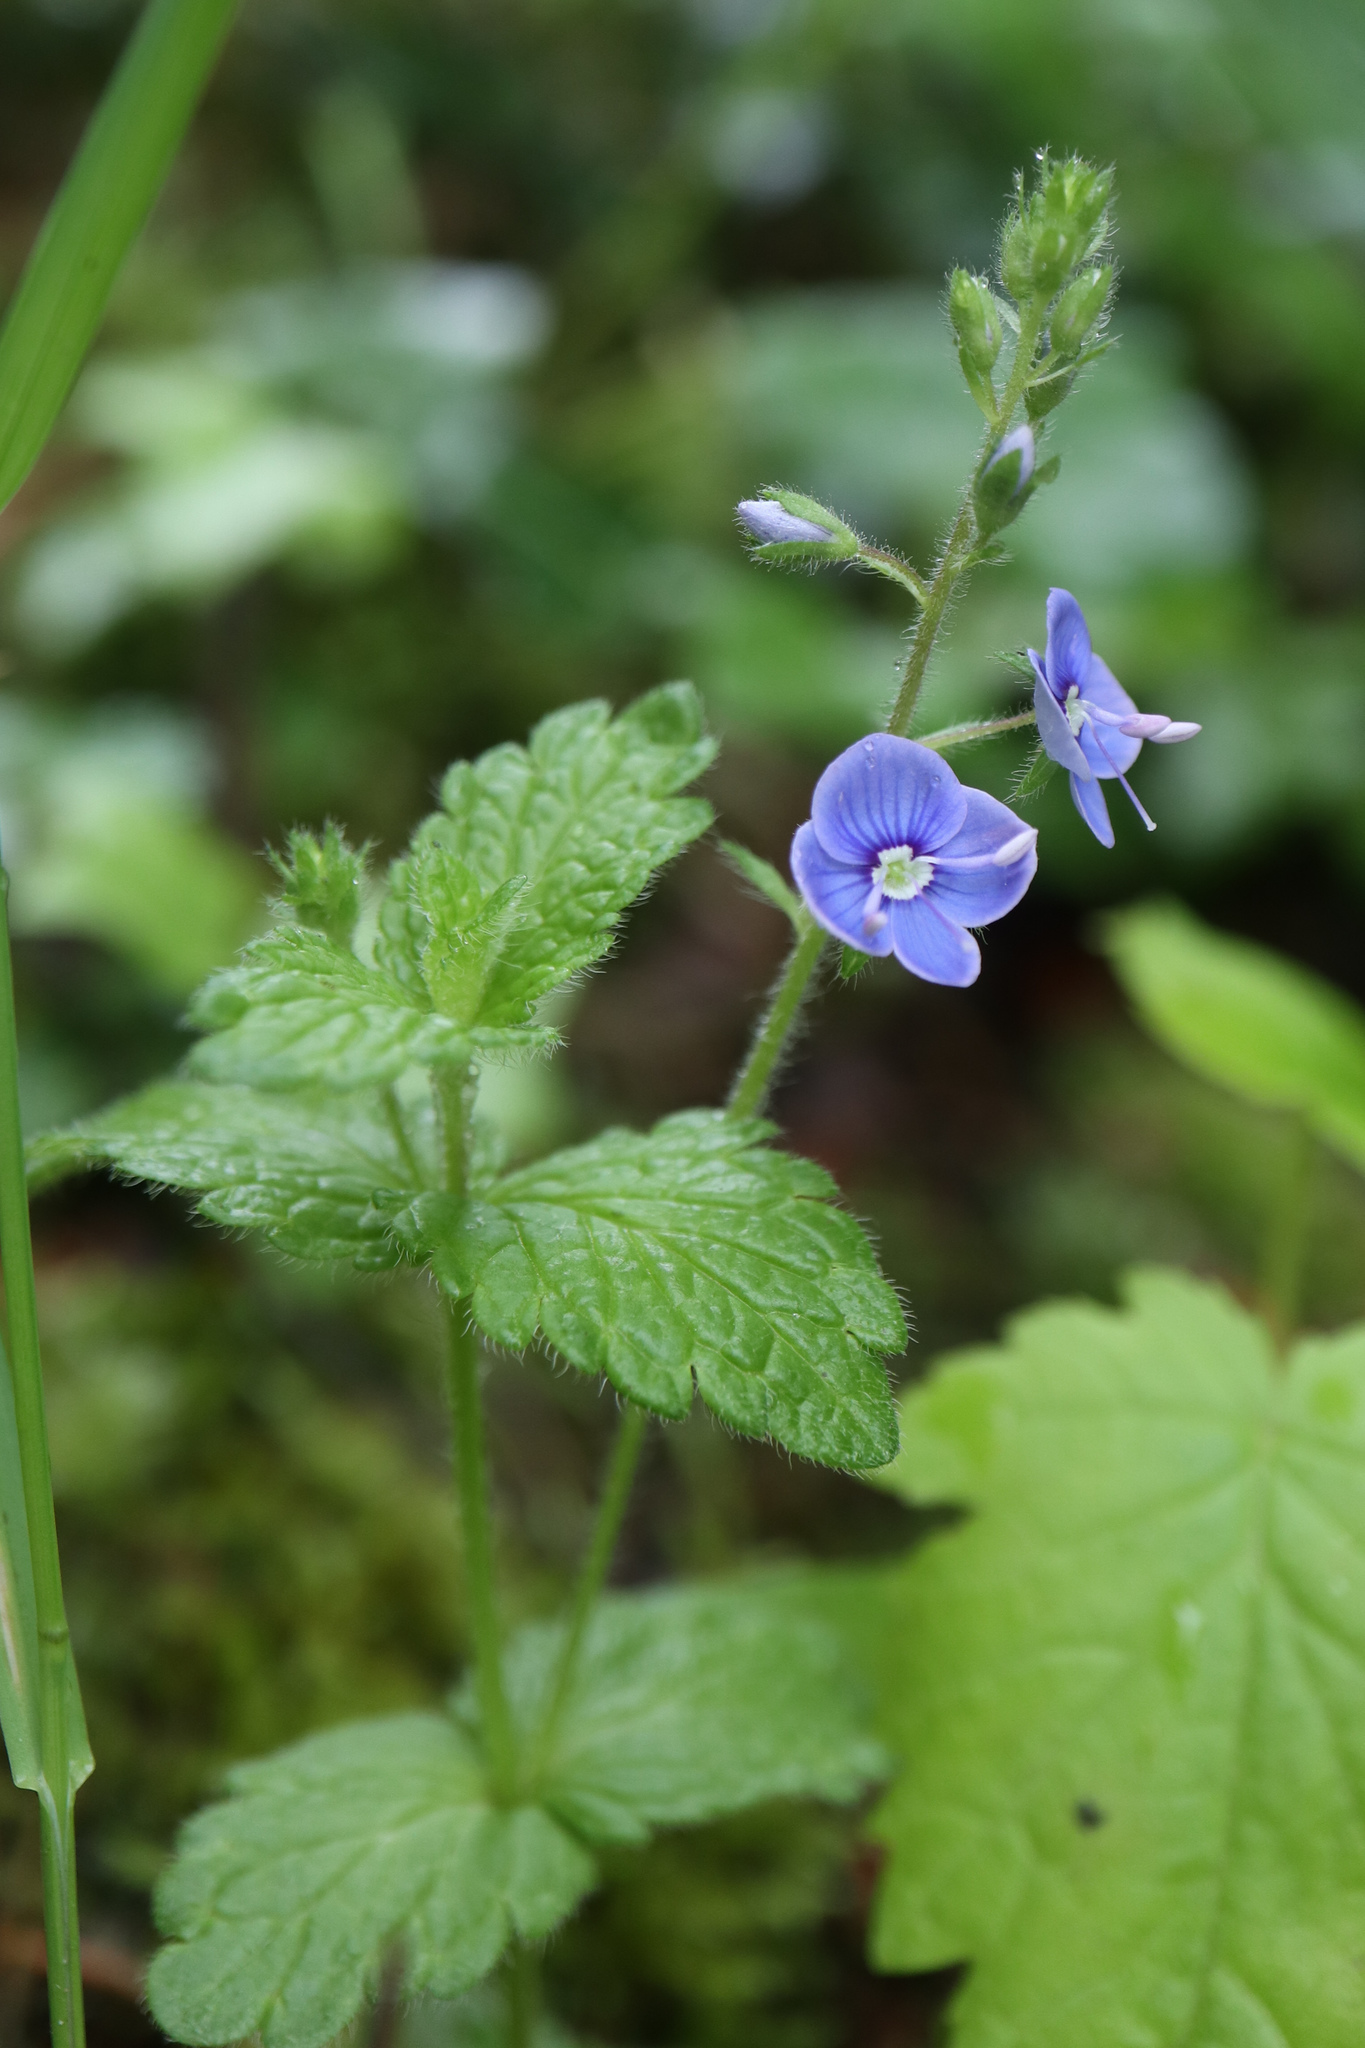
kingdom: Plantae
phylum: Tracheophyta
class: Magnoliopsida
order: Lamiales
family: Plantaginaceae
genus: Veronica
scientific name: Veronica chamaedrys
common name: Germander speedwell
